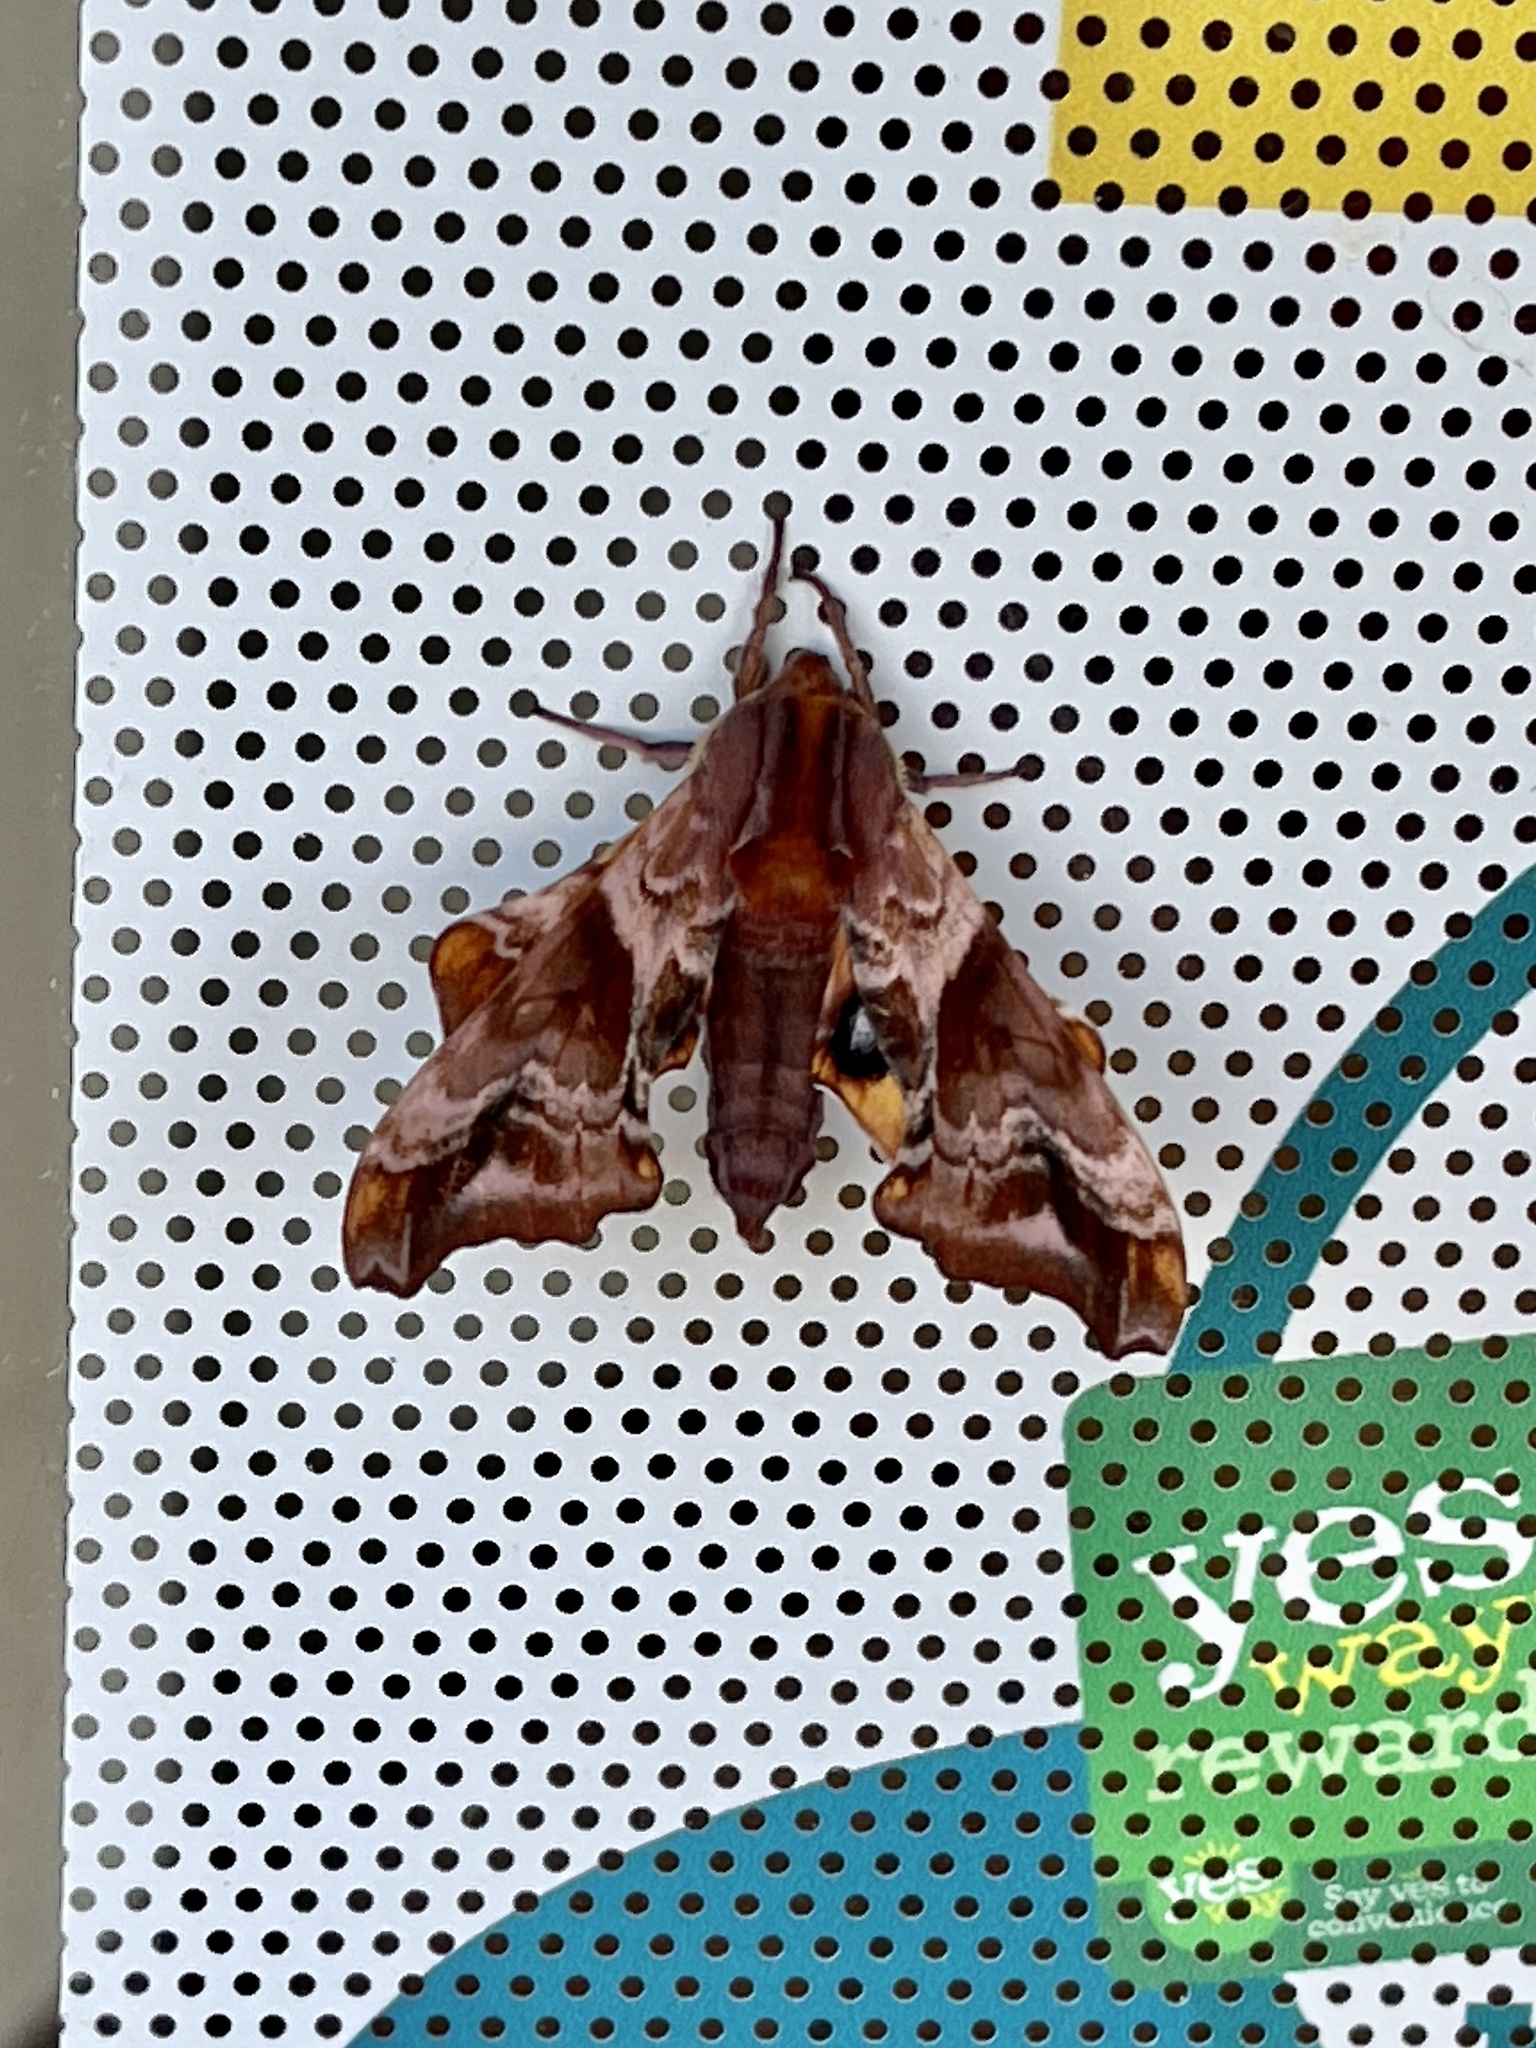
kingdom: Animalia
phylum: Arthropoda
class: Insecta
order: Lepidoptera
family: Sphingidae
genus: Paonias
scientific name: Paonias myops
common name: Small-eyed sphinx
